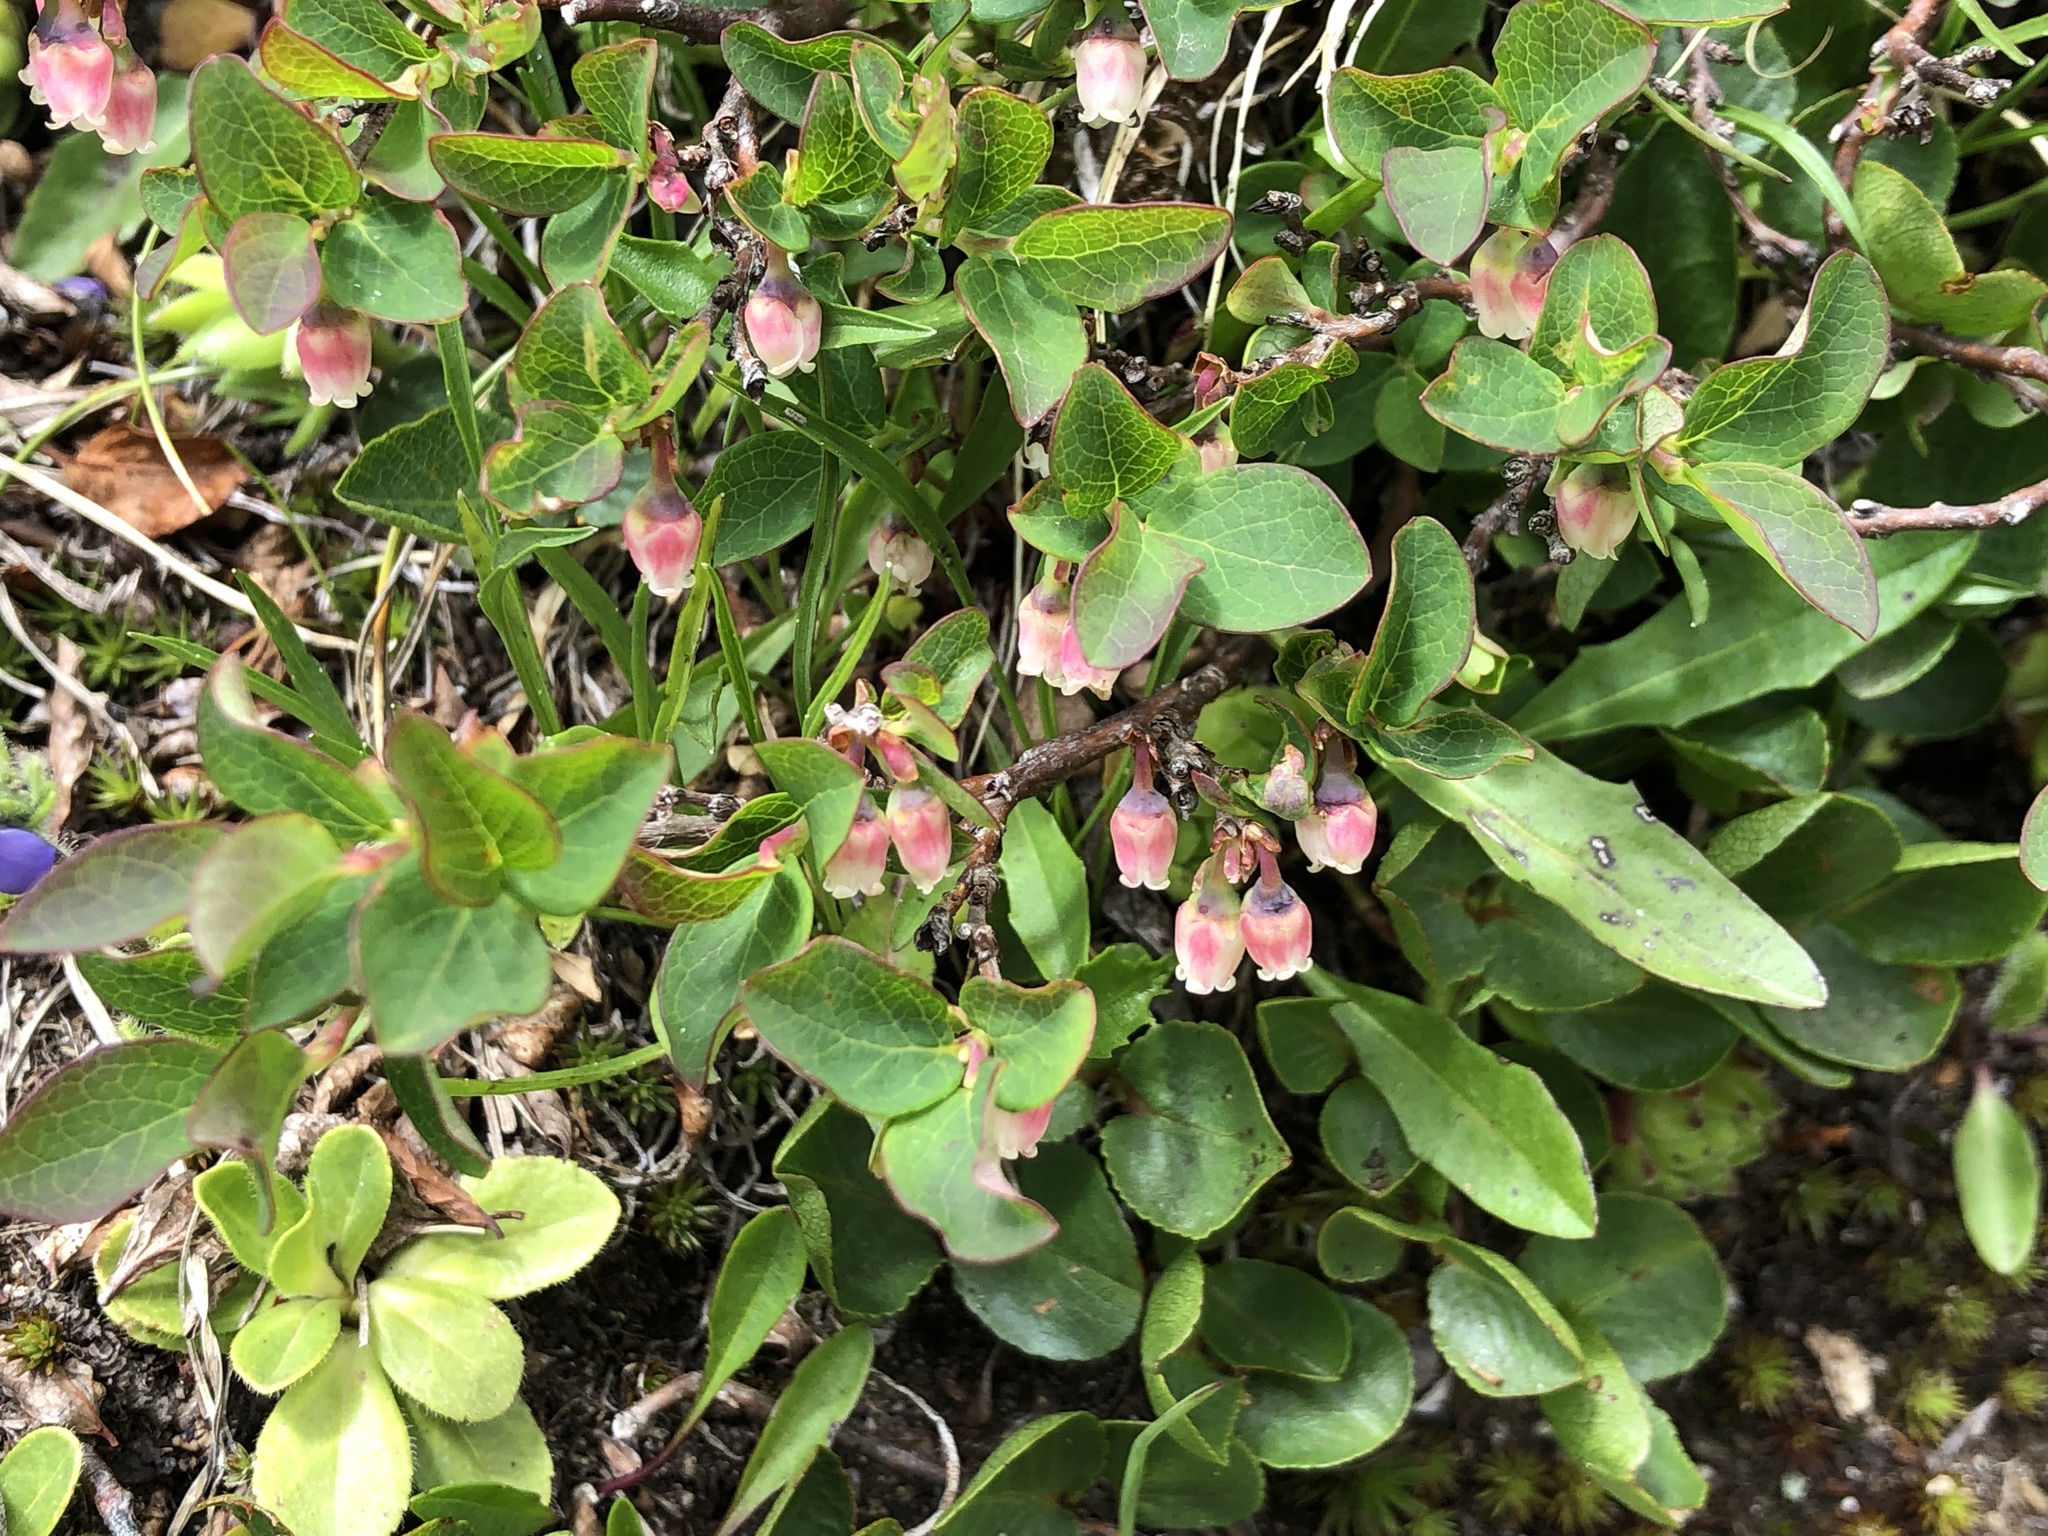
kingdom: Plantae
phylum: Tracheophyta
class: Magnoliopsida
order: Ericales
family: Ericaceae
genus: Vaccinium
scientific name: Vaccinium uliginosum
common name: Bog bilberry
